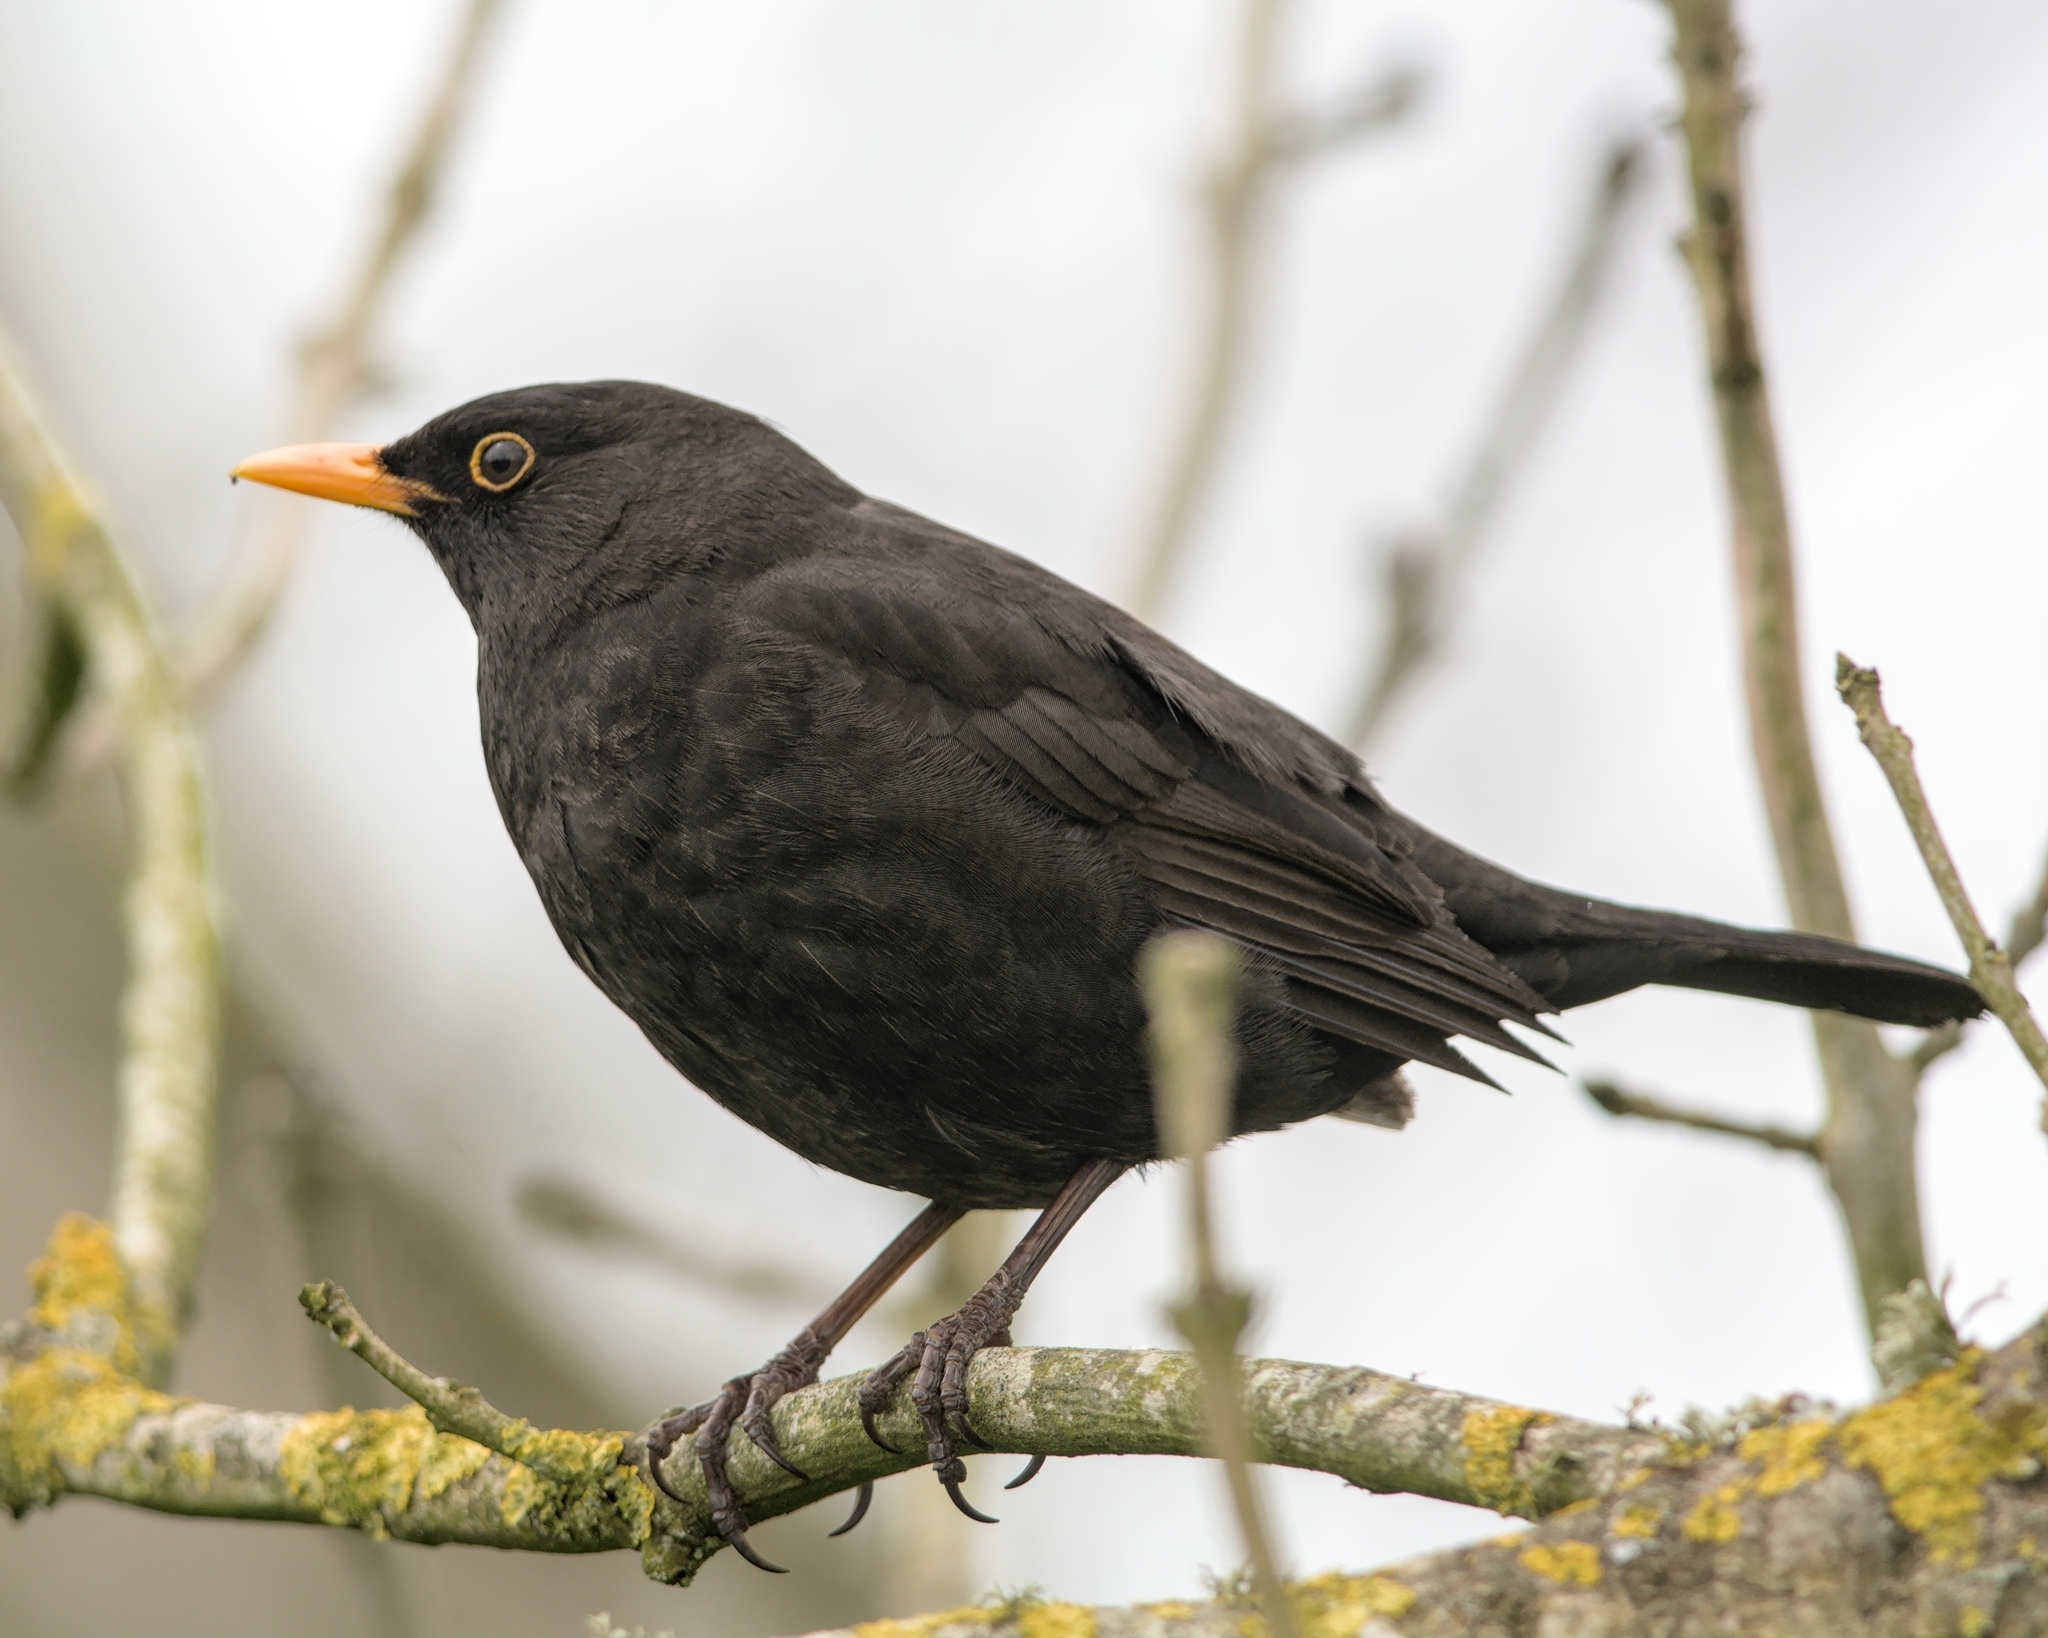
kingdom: Animalia
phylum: Chordata
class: Aves
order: Passeriformes
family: Turdidae
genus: Turdus
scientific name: Turdus merula
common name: Common blackbird
